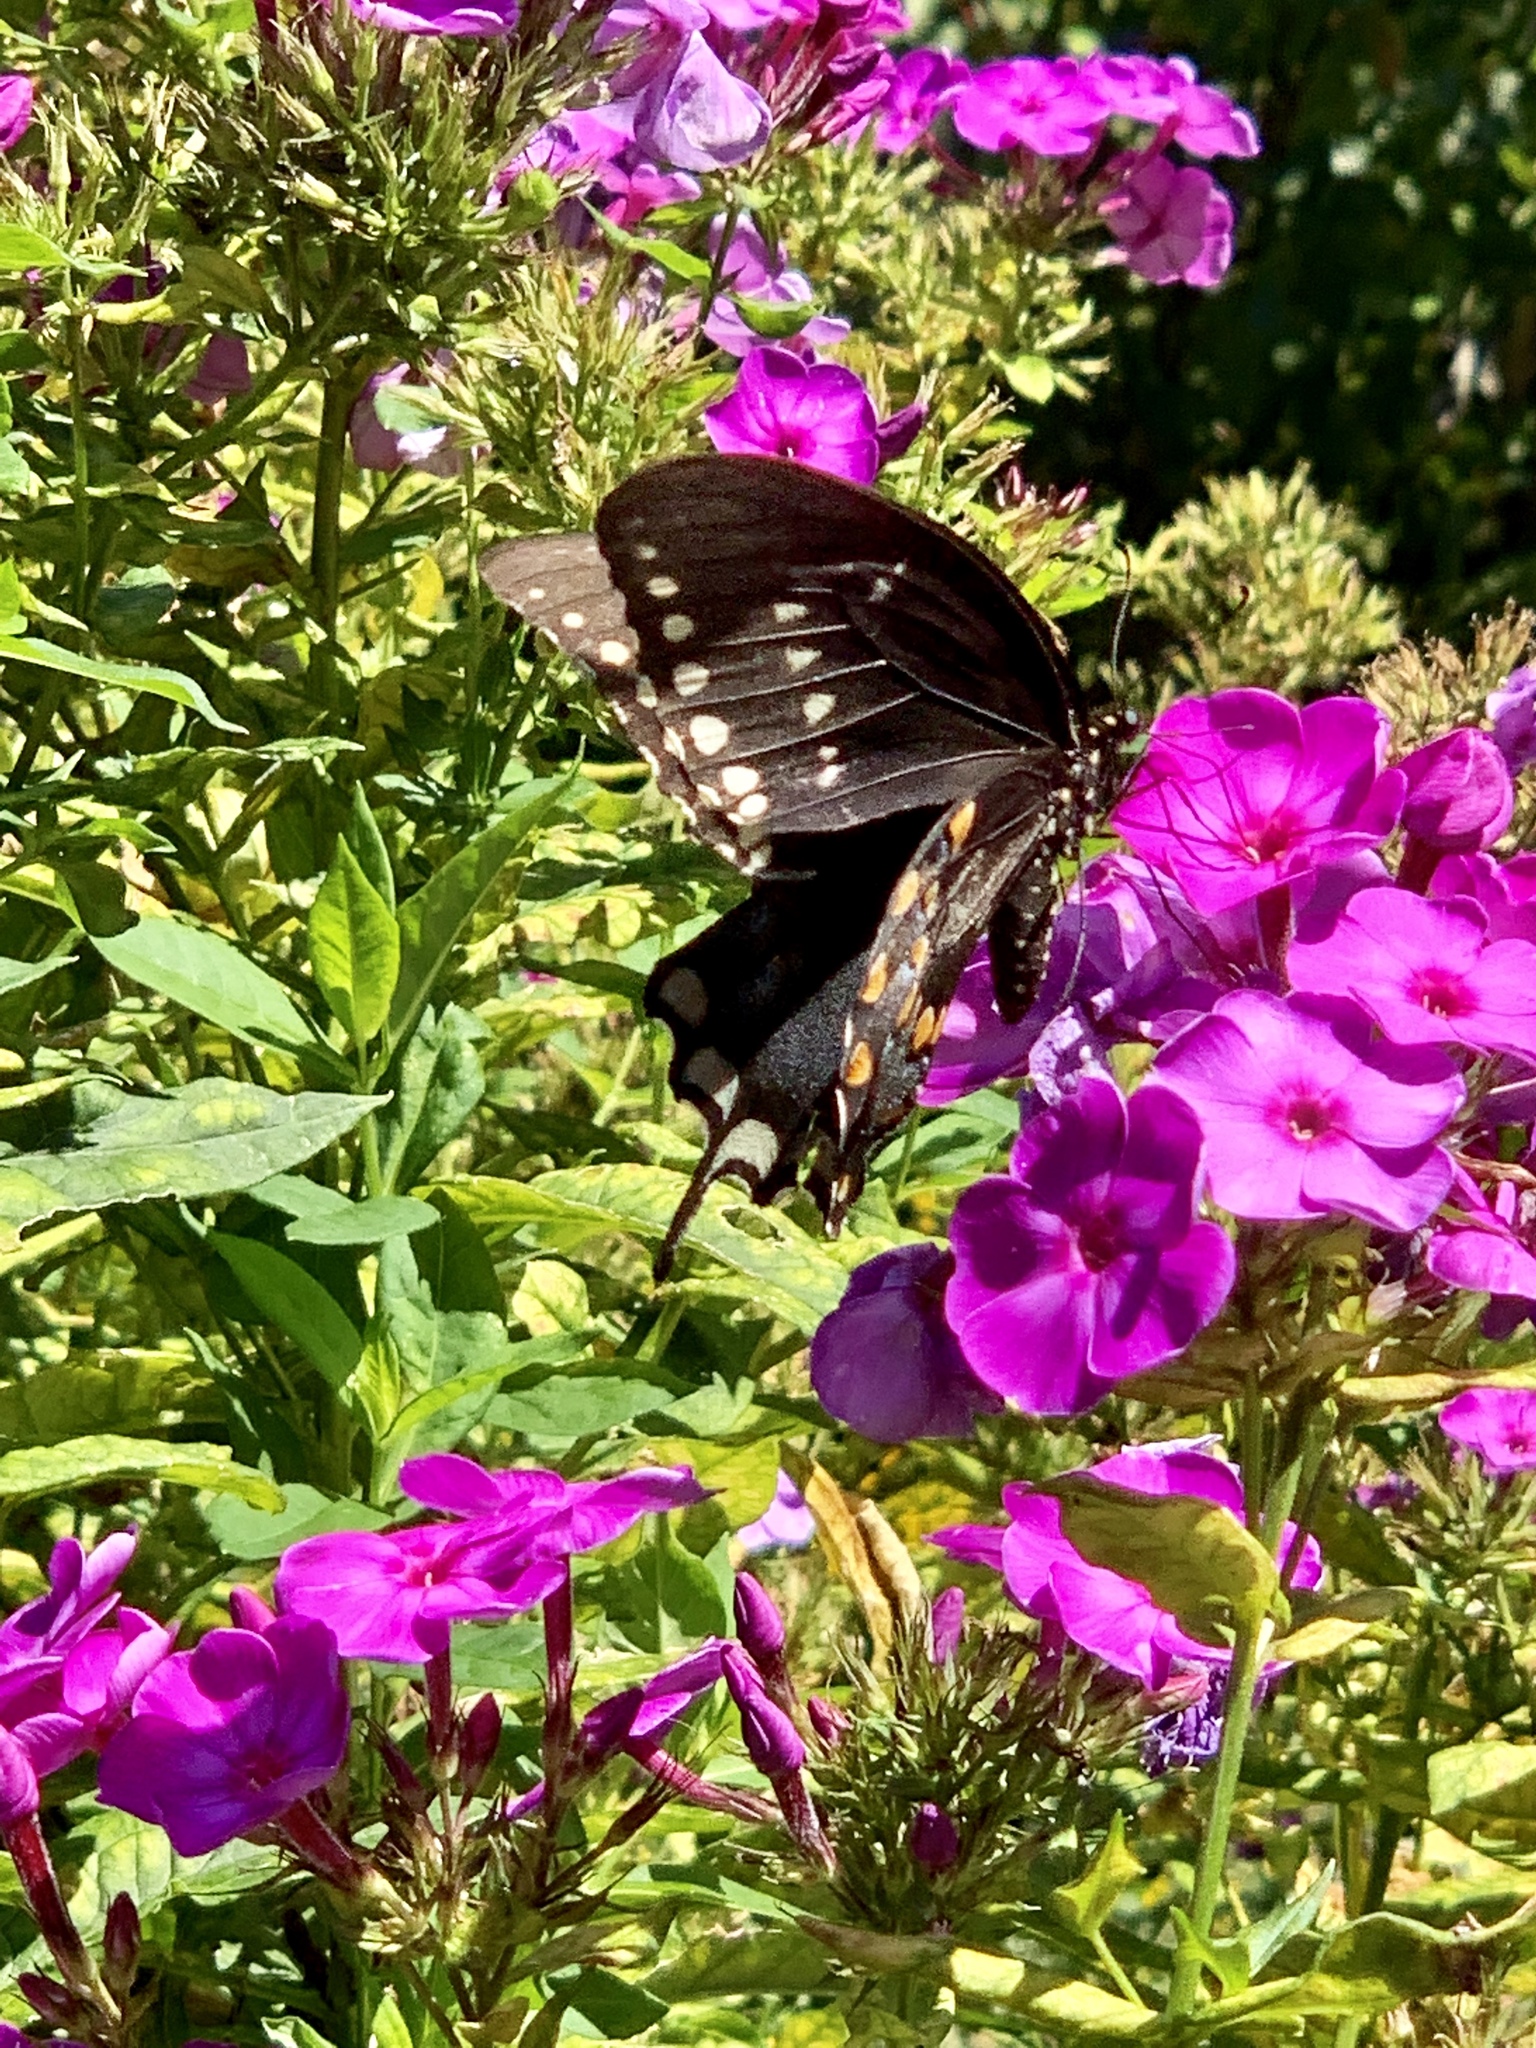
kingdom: Animalia
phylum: Arthropoda
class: Insecta
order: Lepidoptera
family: Papilionidae
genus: Papilio
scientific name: Papilio troilus
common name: Spicebush swallowtail
